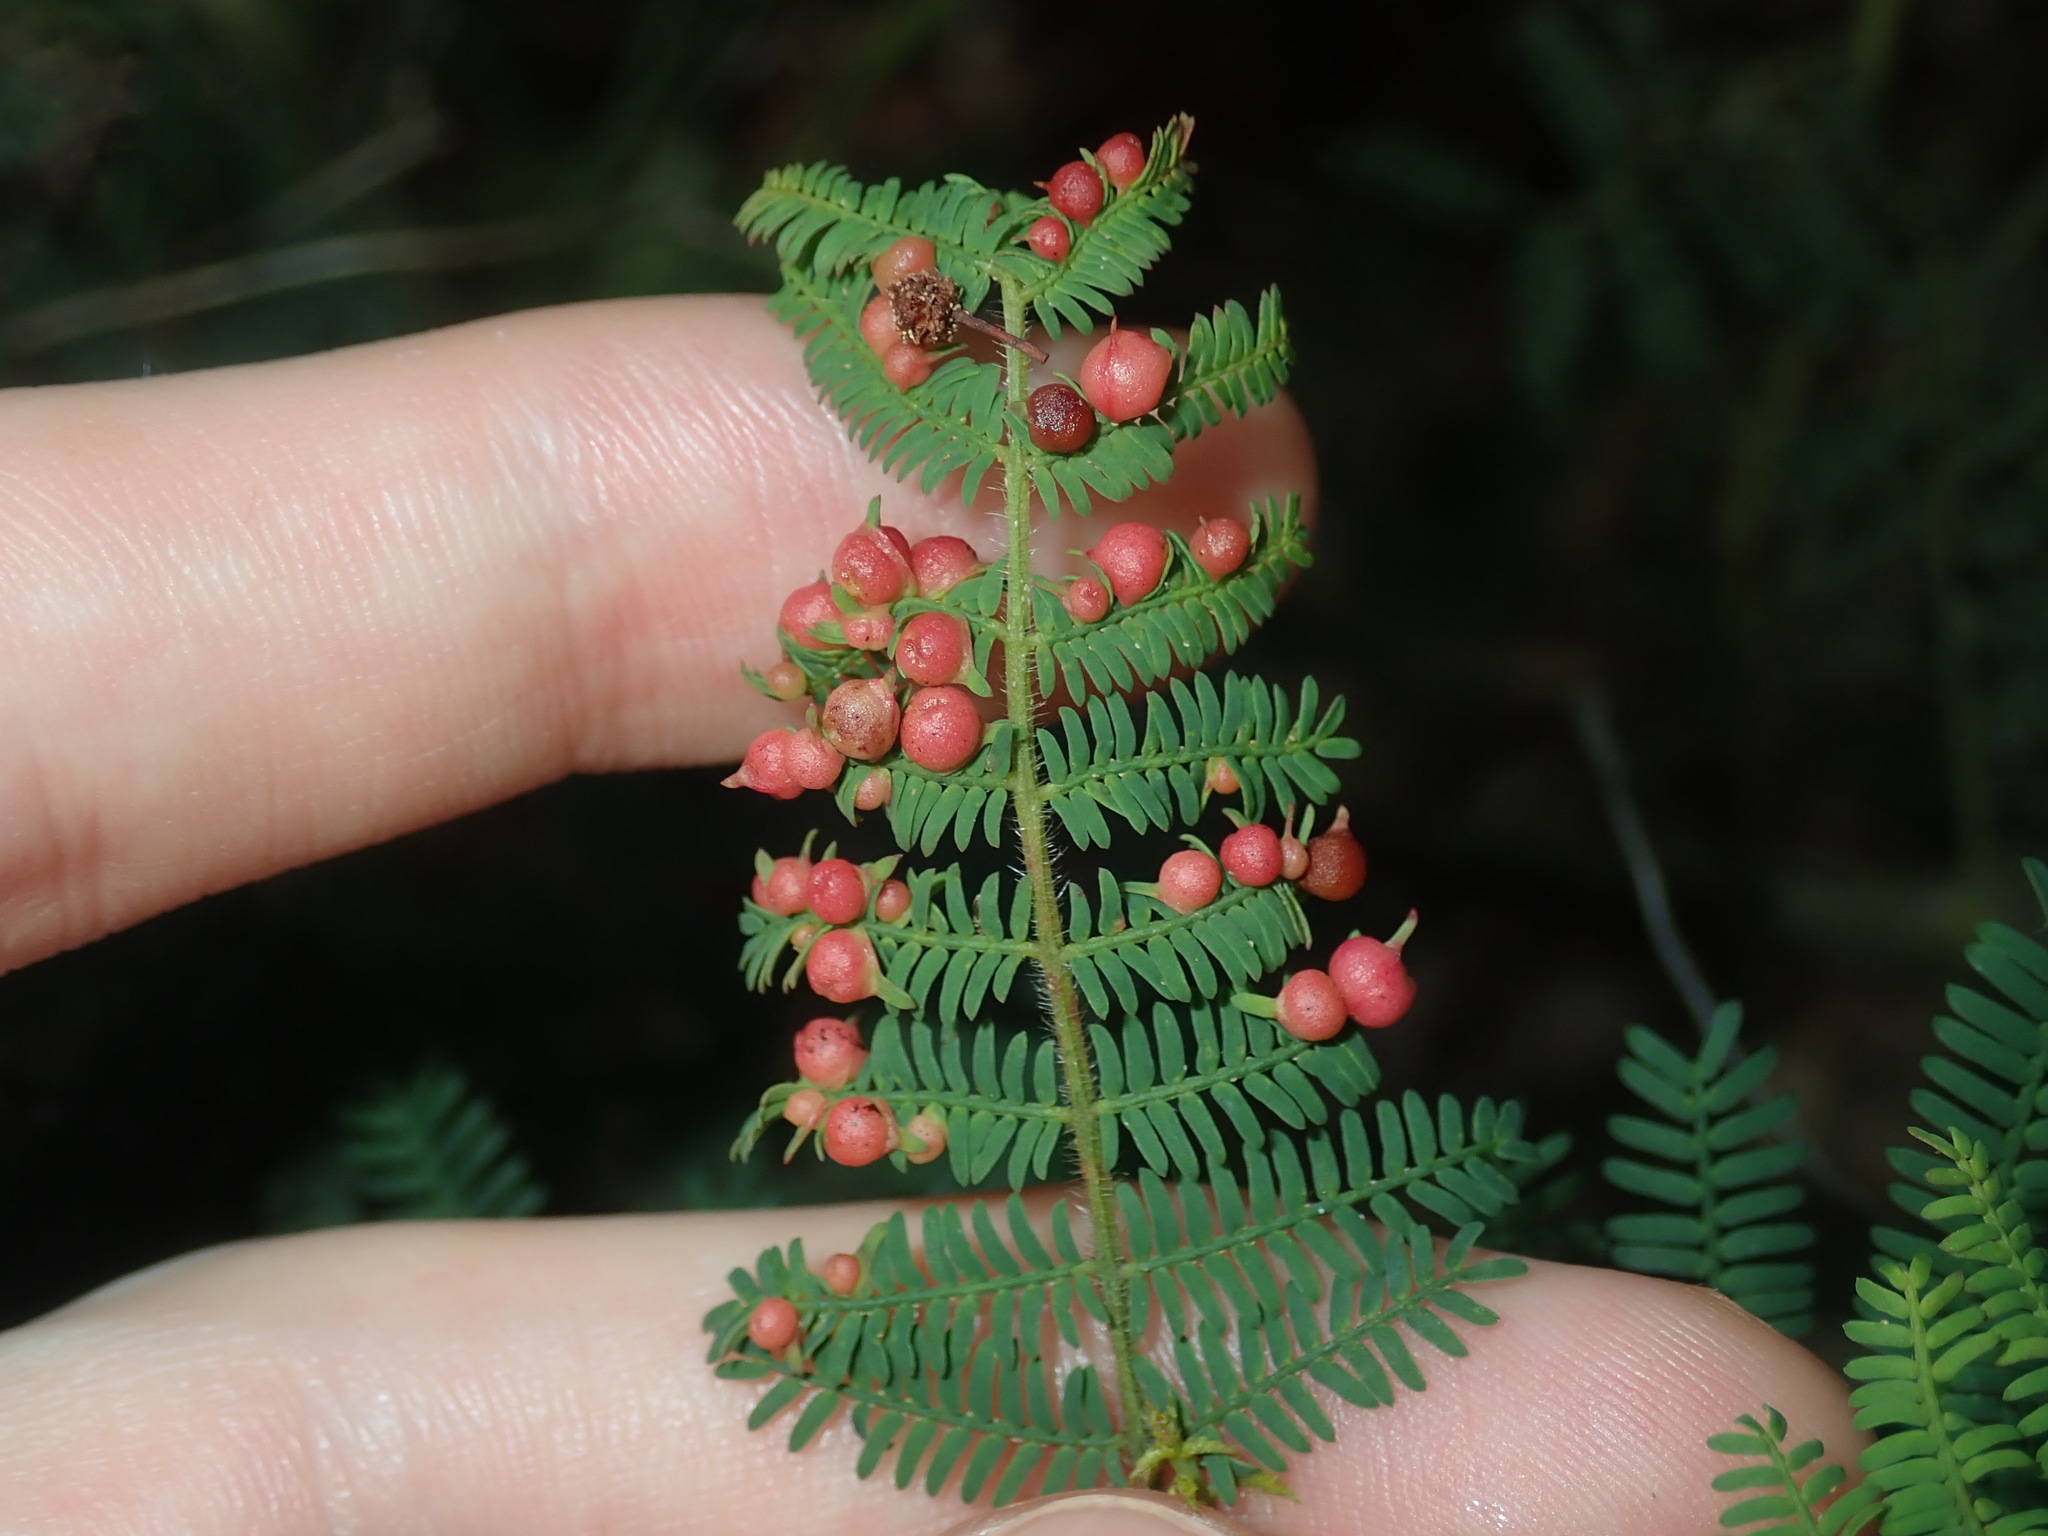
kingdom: Animalia
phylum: Arthropoda
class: Insecta
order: Diptera
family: Cecidomyiidae
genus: Austroacacidiplosis
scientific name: Austroacacidiplosis botrycephalae
